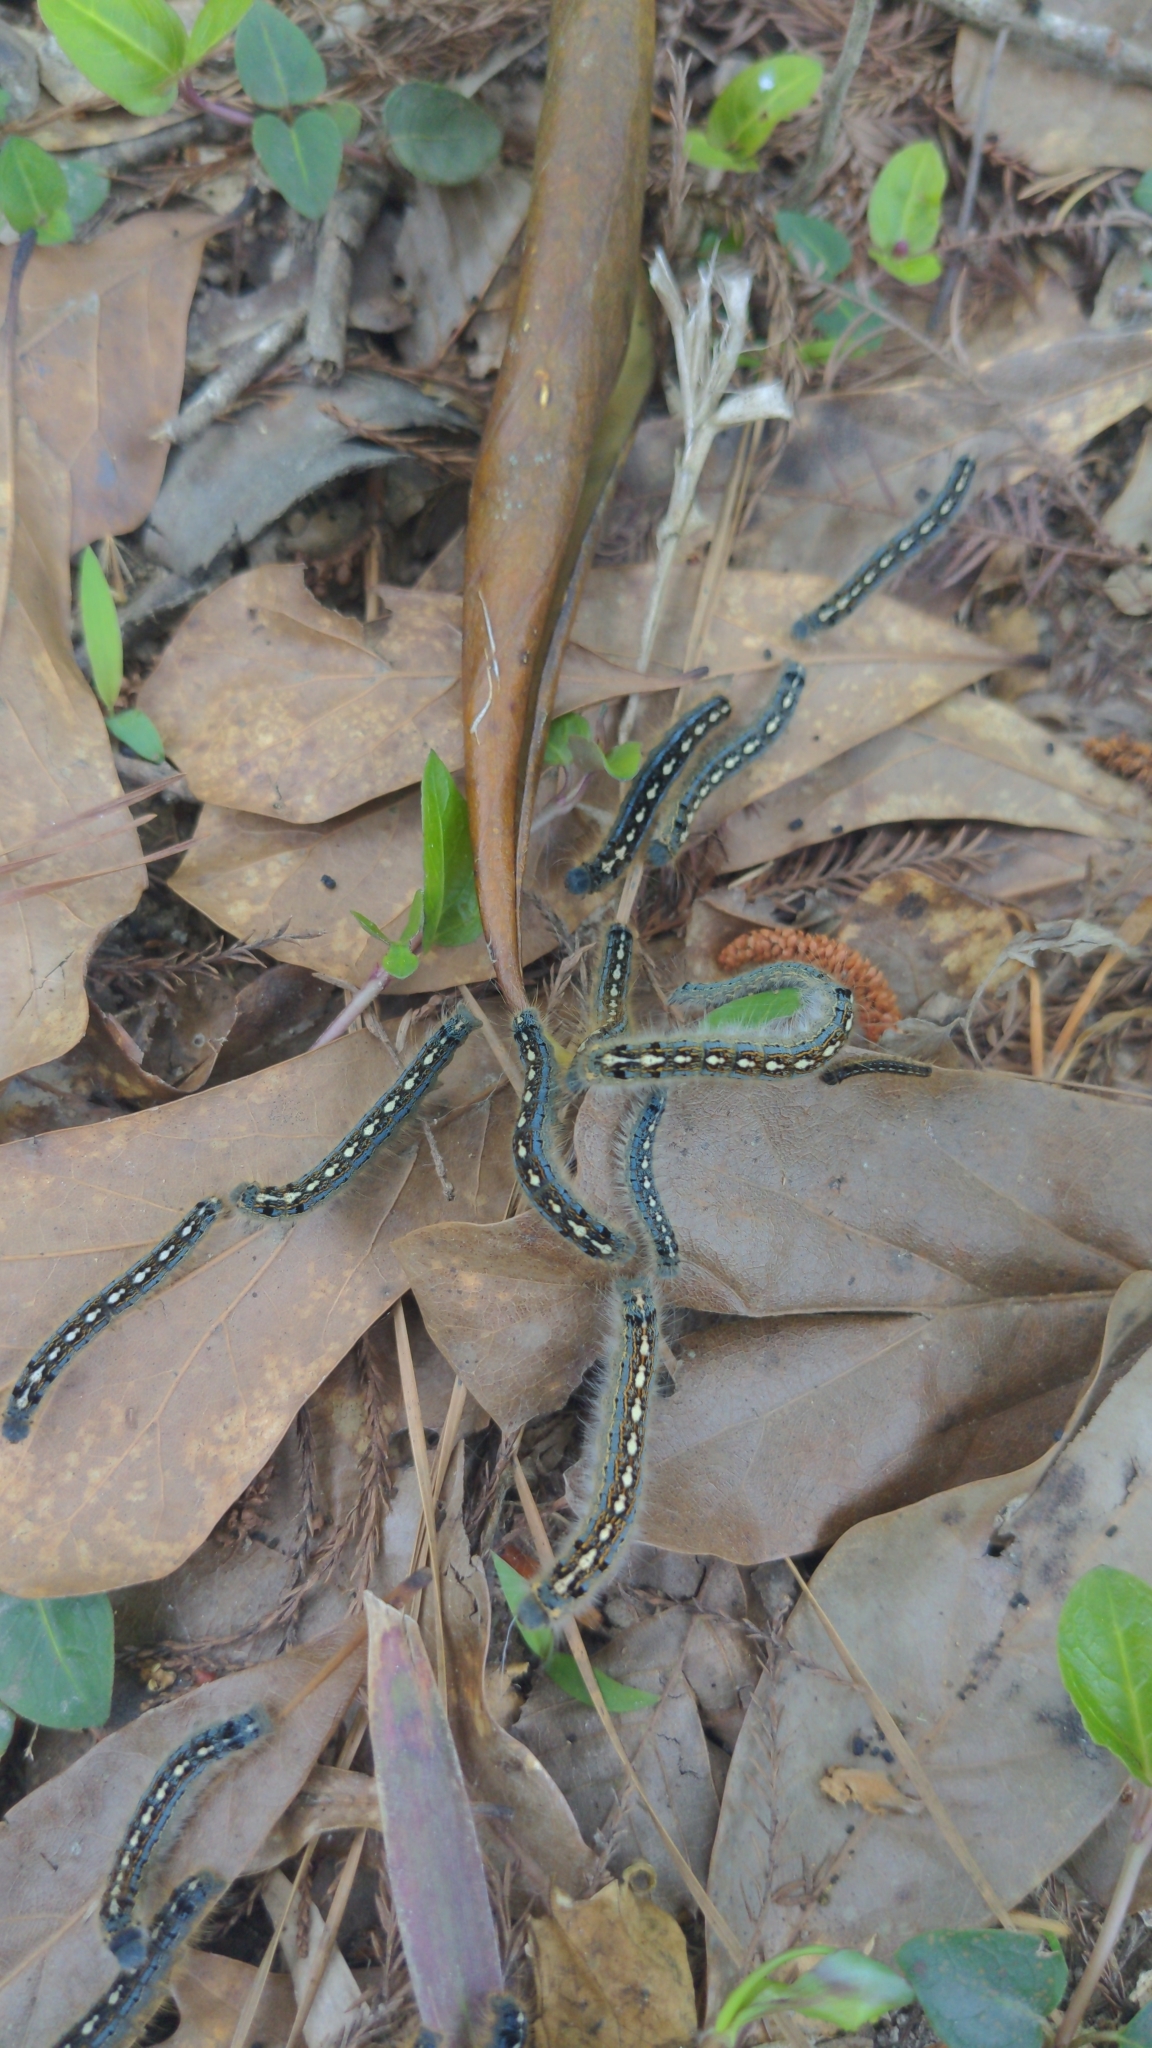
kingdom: Animalia
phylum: Arthropoda
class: Insecta
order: Lepidoptera
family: Lasiocampidae
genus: Malacosoma
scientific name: Malacosoma disstria
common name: Forest tent caterpillar
